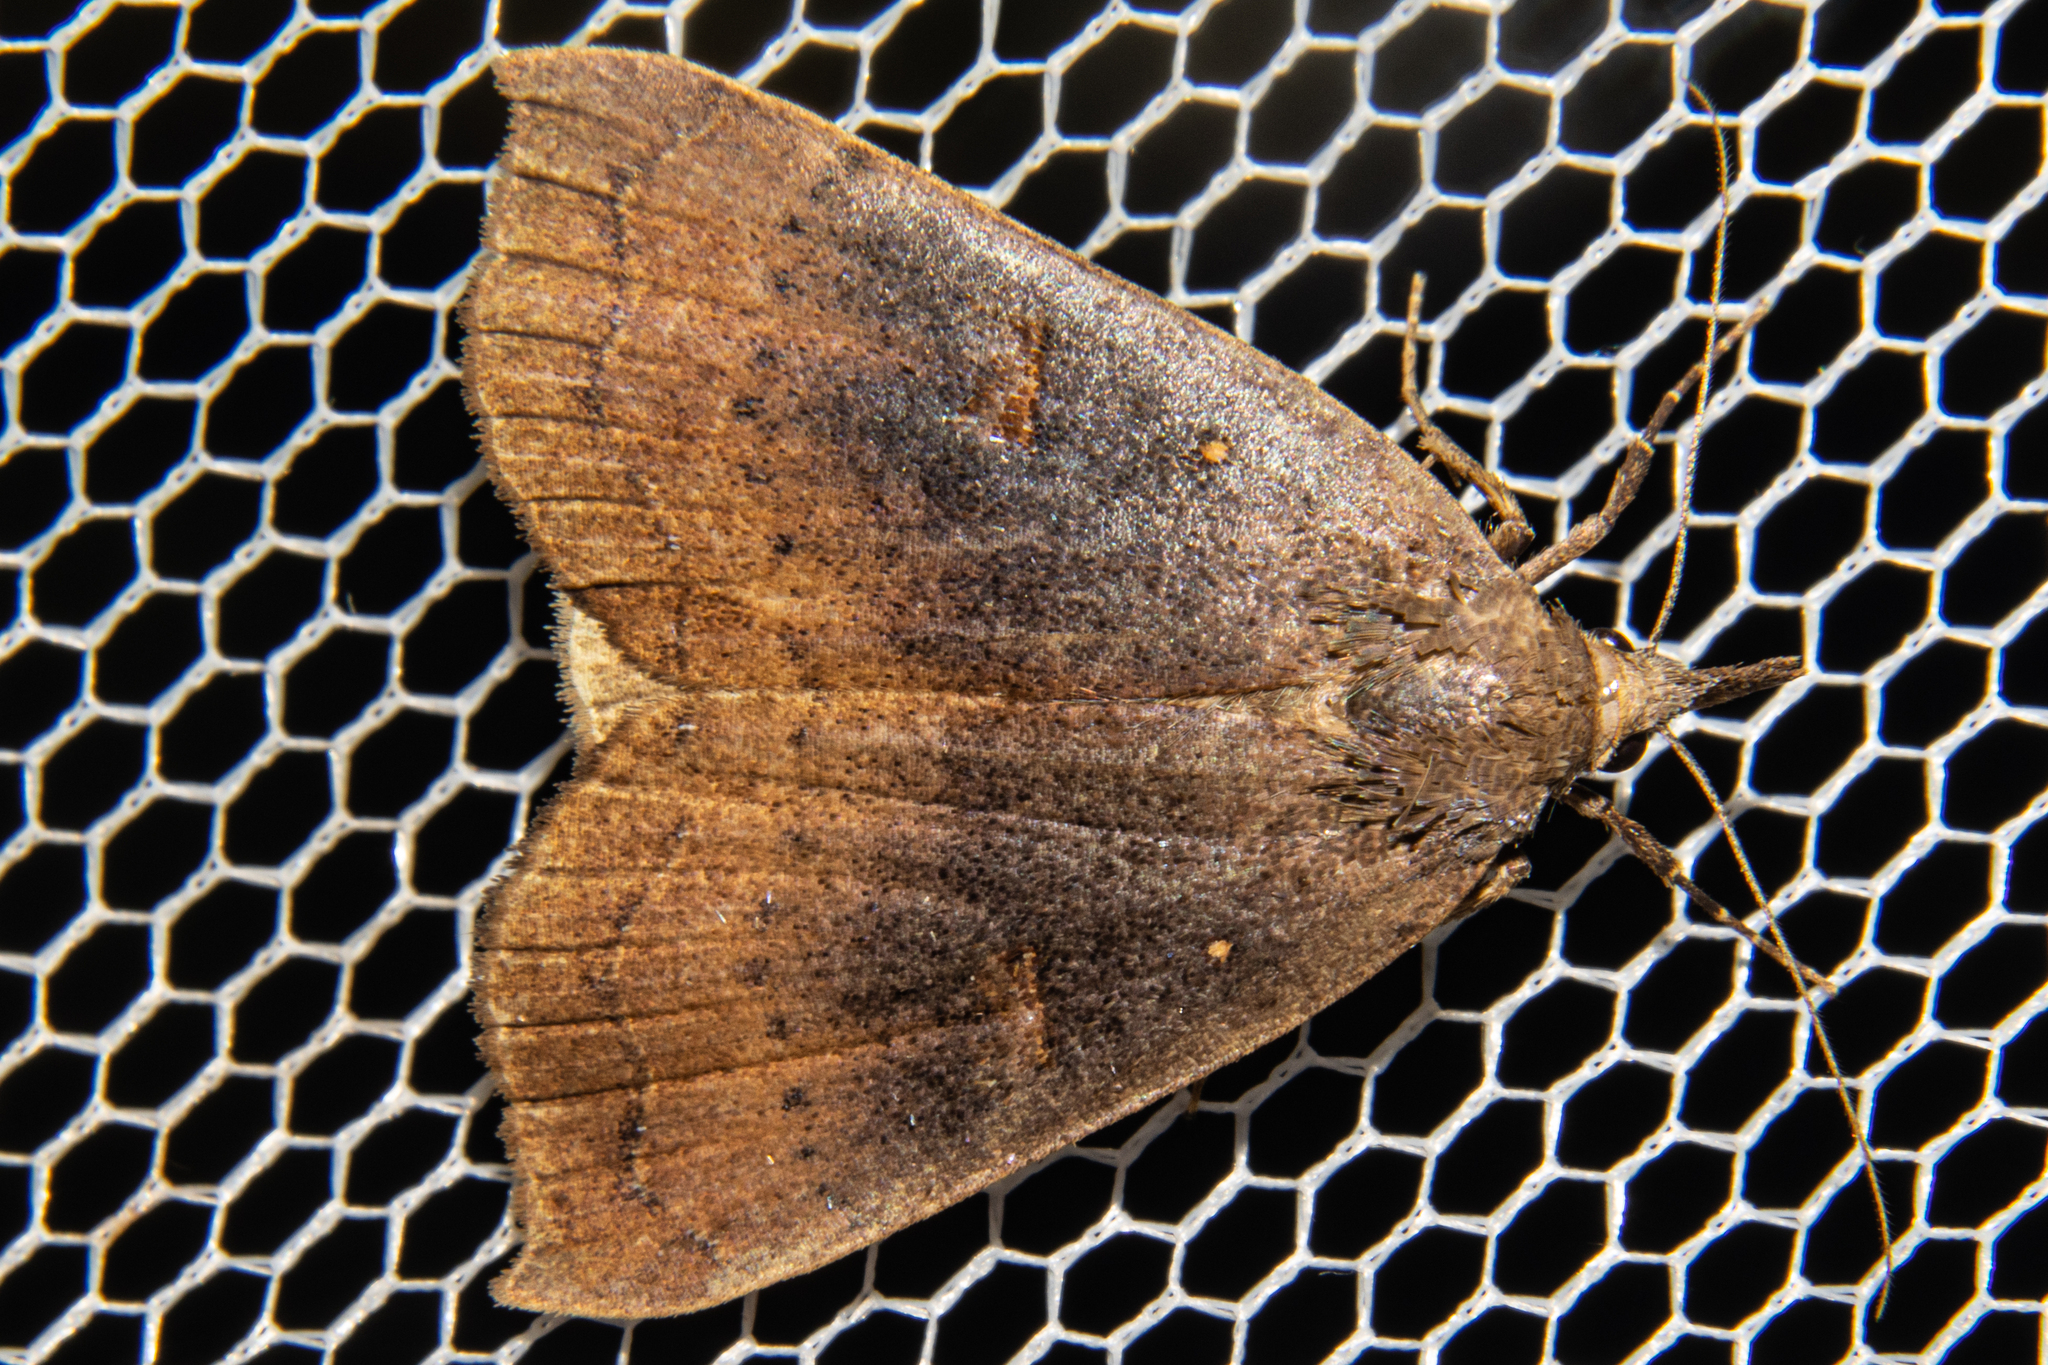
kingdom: Animalia
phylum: Arthropoda
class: Insecta
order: Lepidoptera
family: Erebidae
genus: Rhapsa
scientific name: Rhapsa scotosialis
